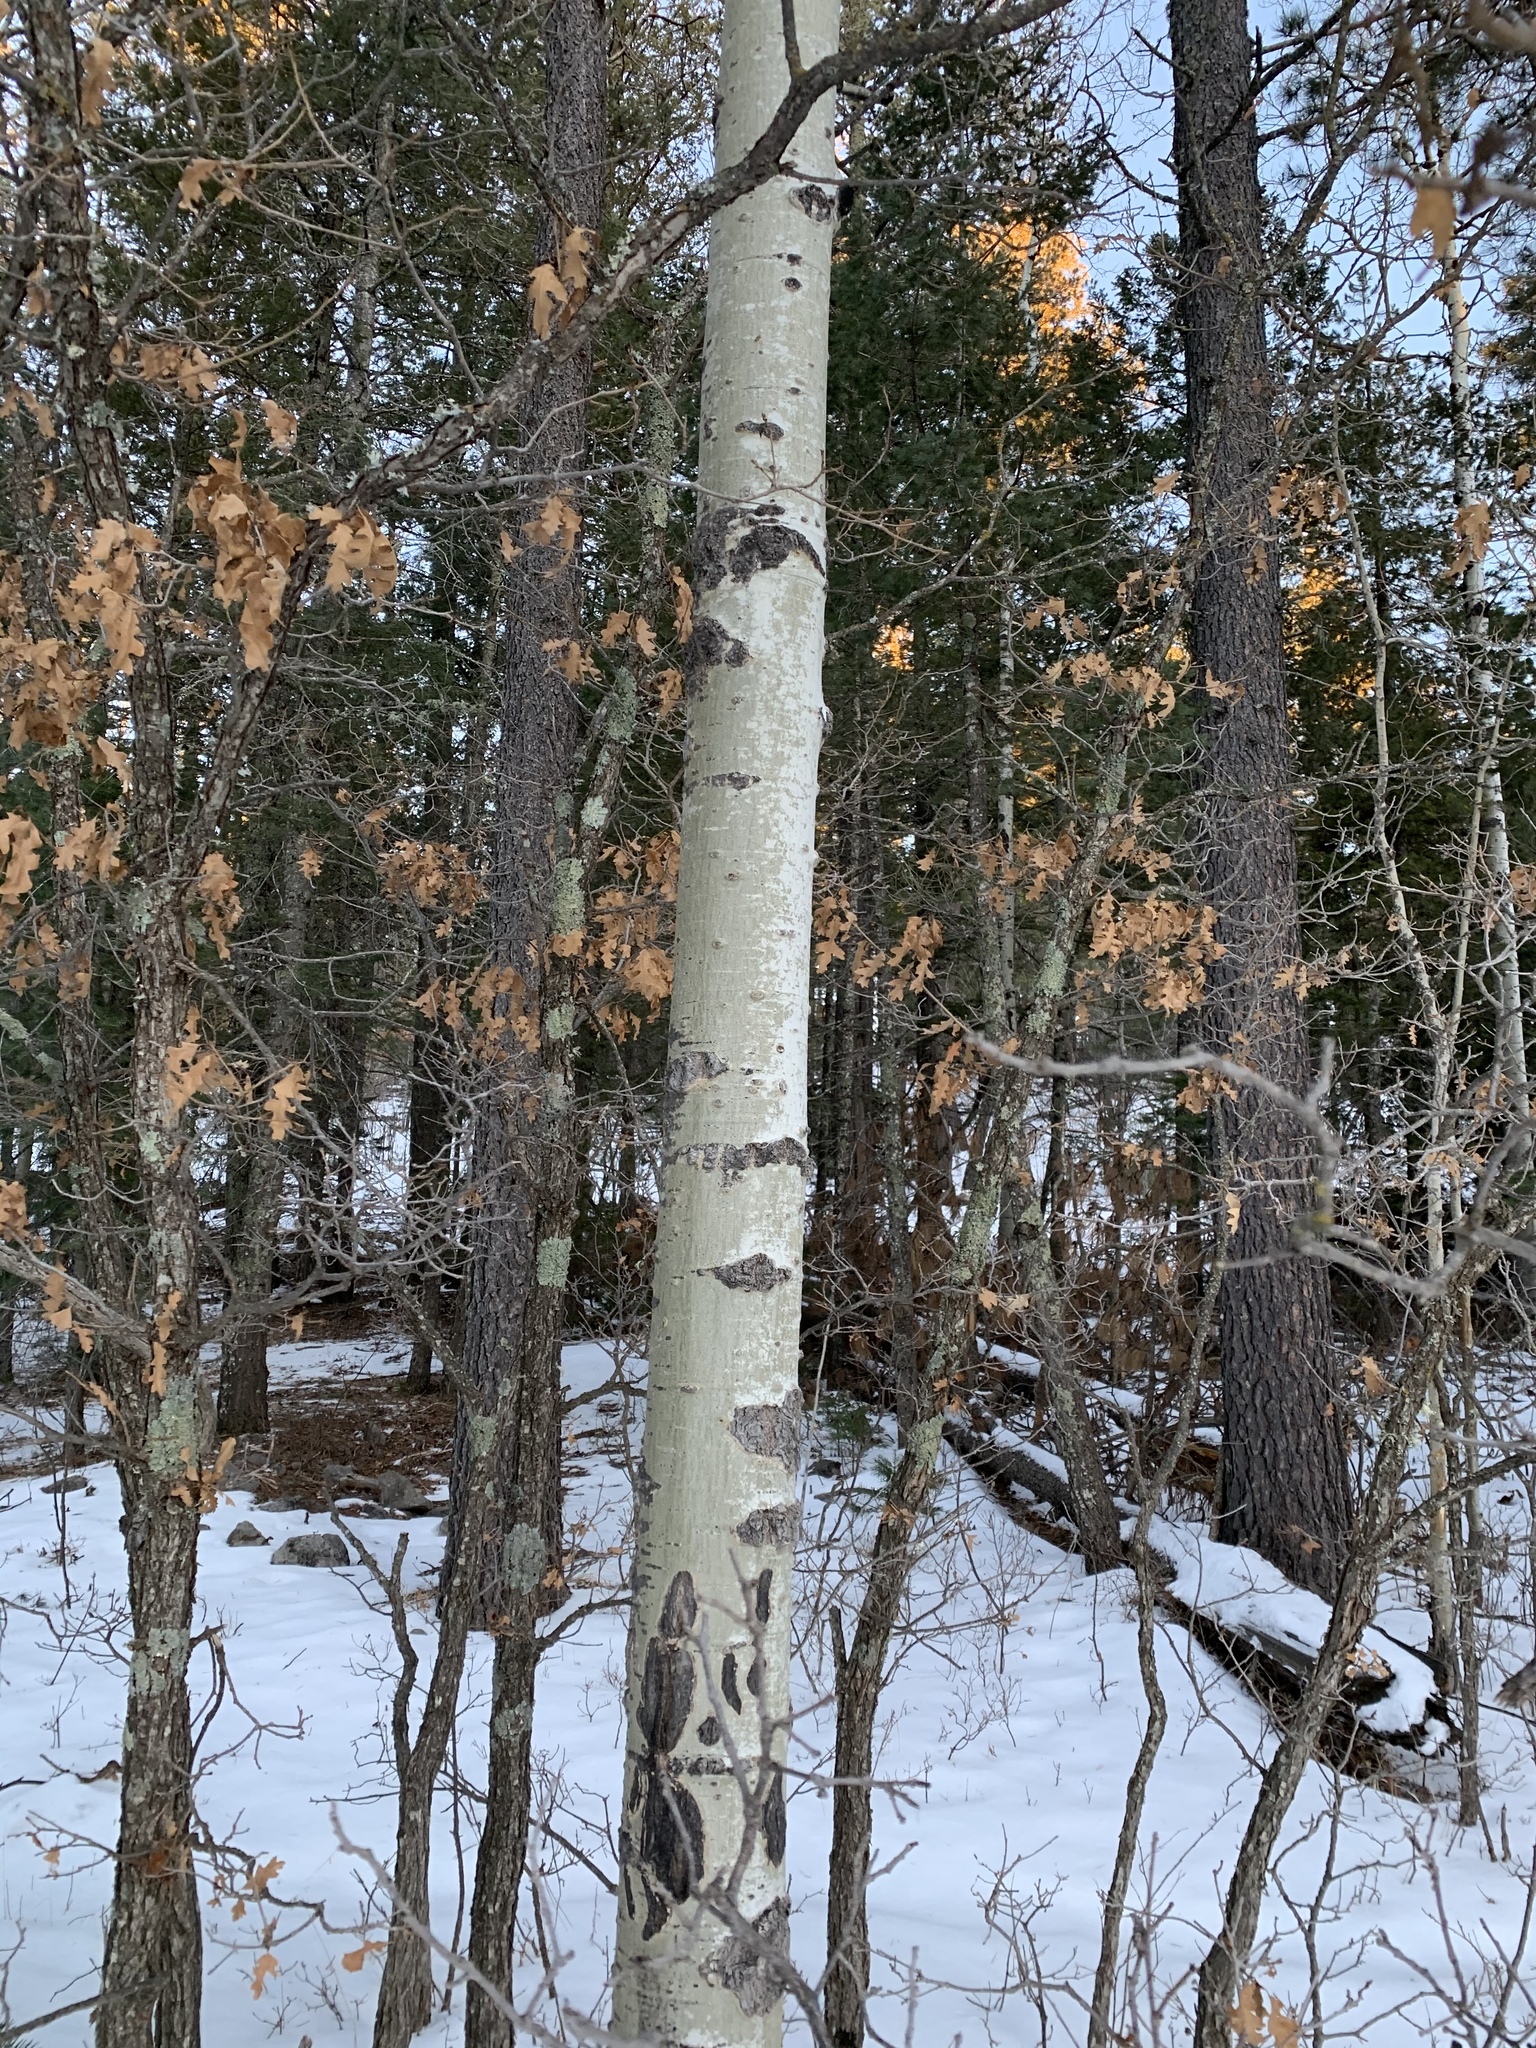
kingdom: Plantae
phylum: Tracheophyta
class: Magnoliopsida
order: Malpighiales
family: Salicaceae
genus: Populus
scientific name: Populus tremuloides
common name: Quaking aspen
